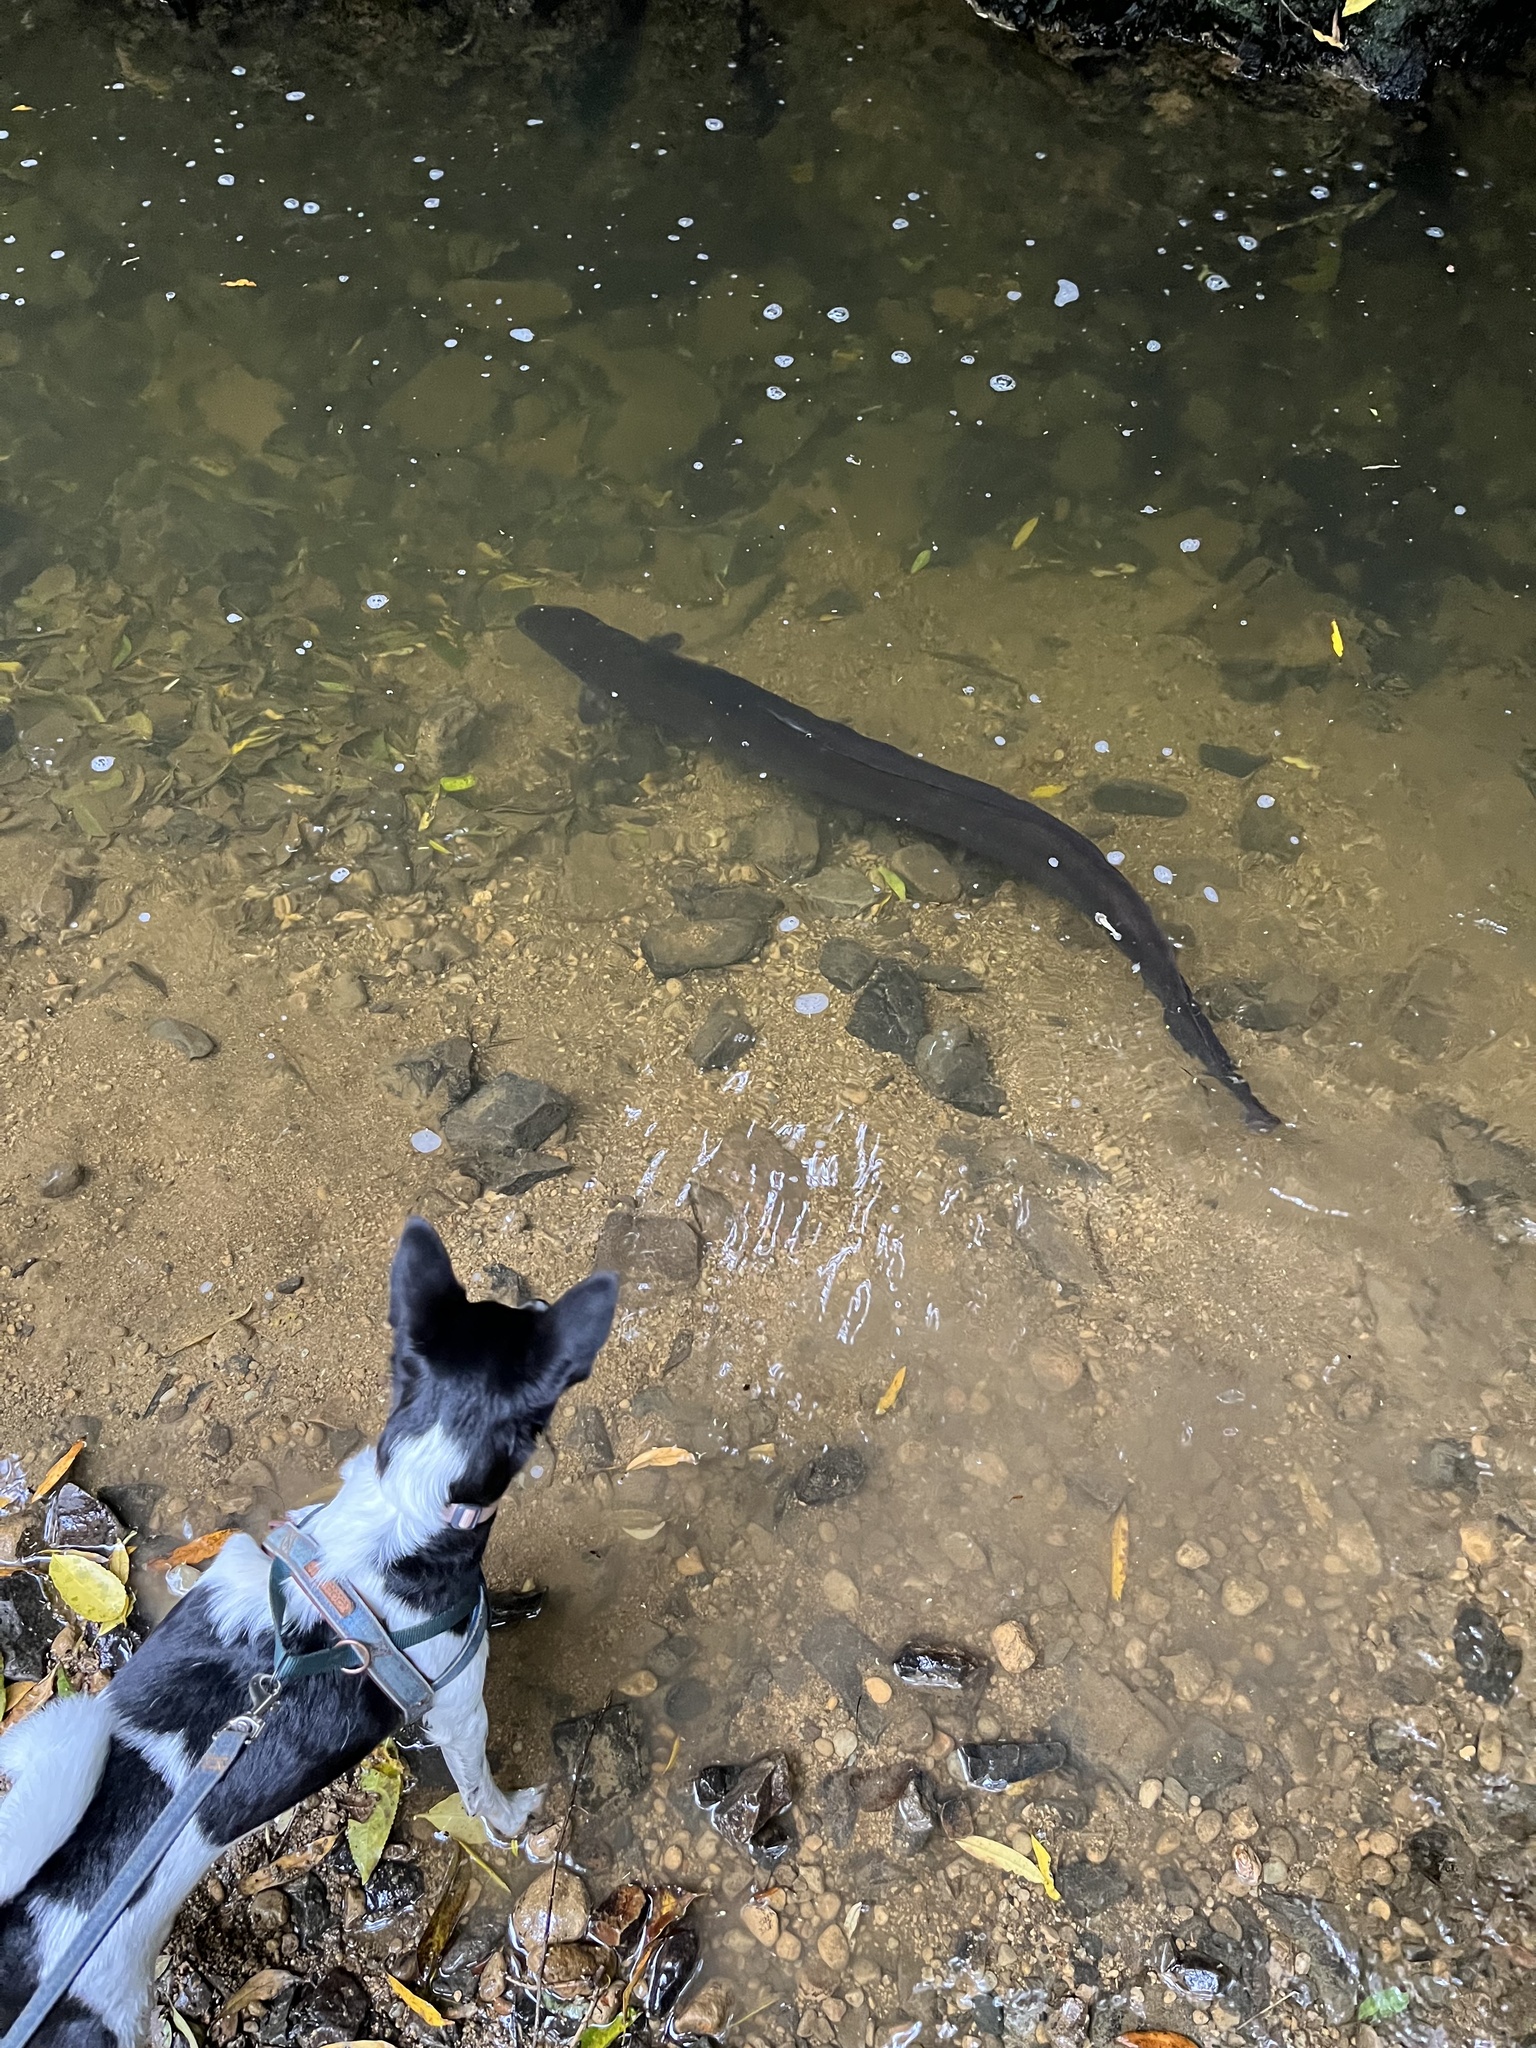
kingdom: Animalia
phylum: Chordata
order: Anguilliformes
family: Anguillidae
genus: Anguilla
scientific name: Anguilla dieffenbachii
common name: New zealand longfin eel
